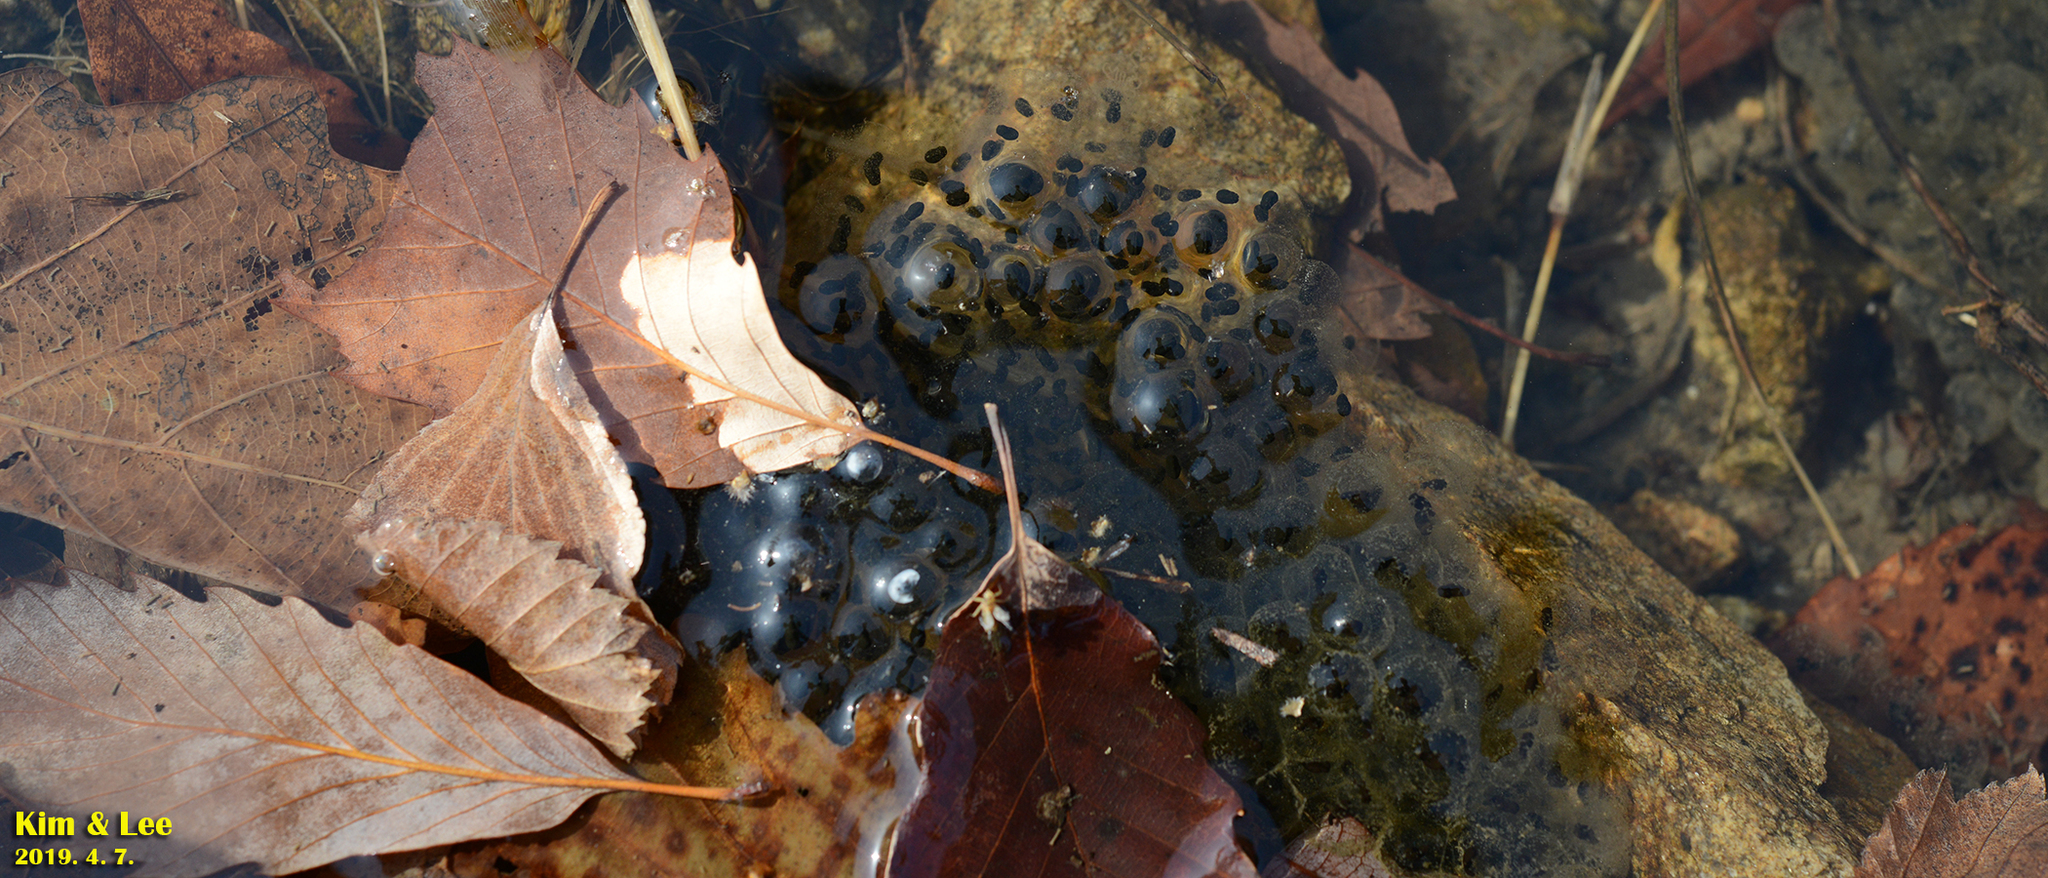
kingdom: Animalia
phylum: Chordata
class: Amphibia
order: Anura
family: Ranidae
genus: Rana
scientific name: Rana huanrenensis
